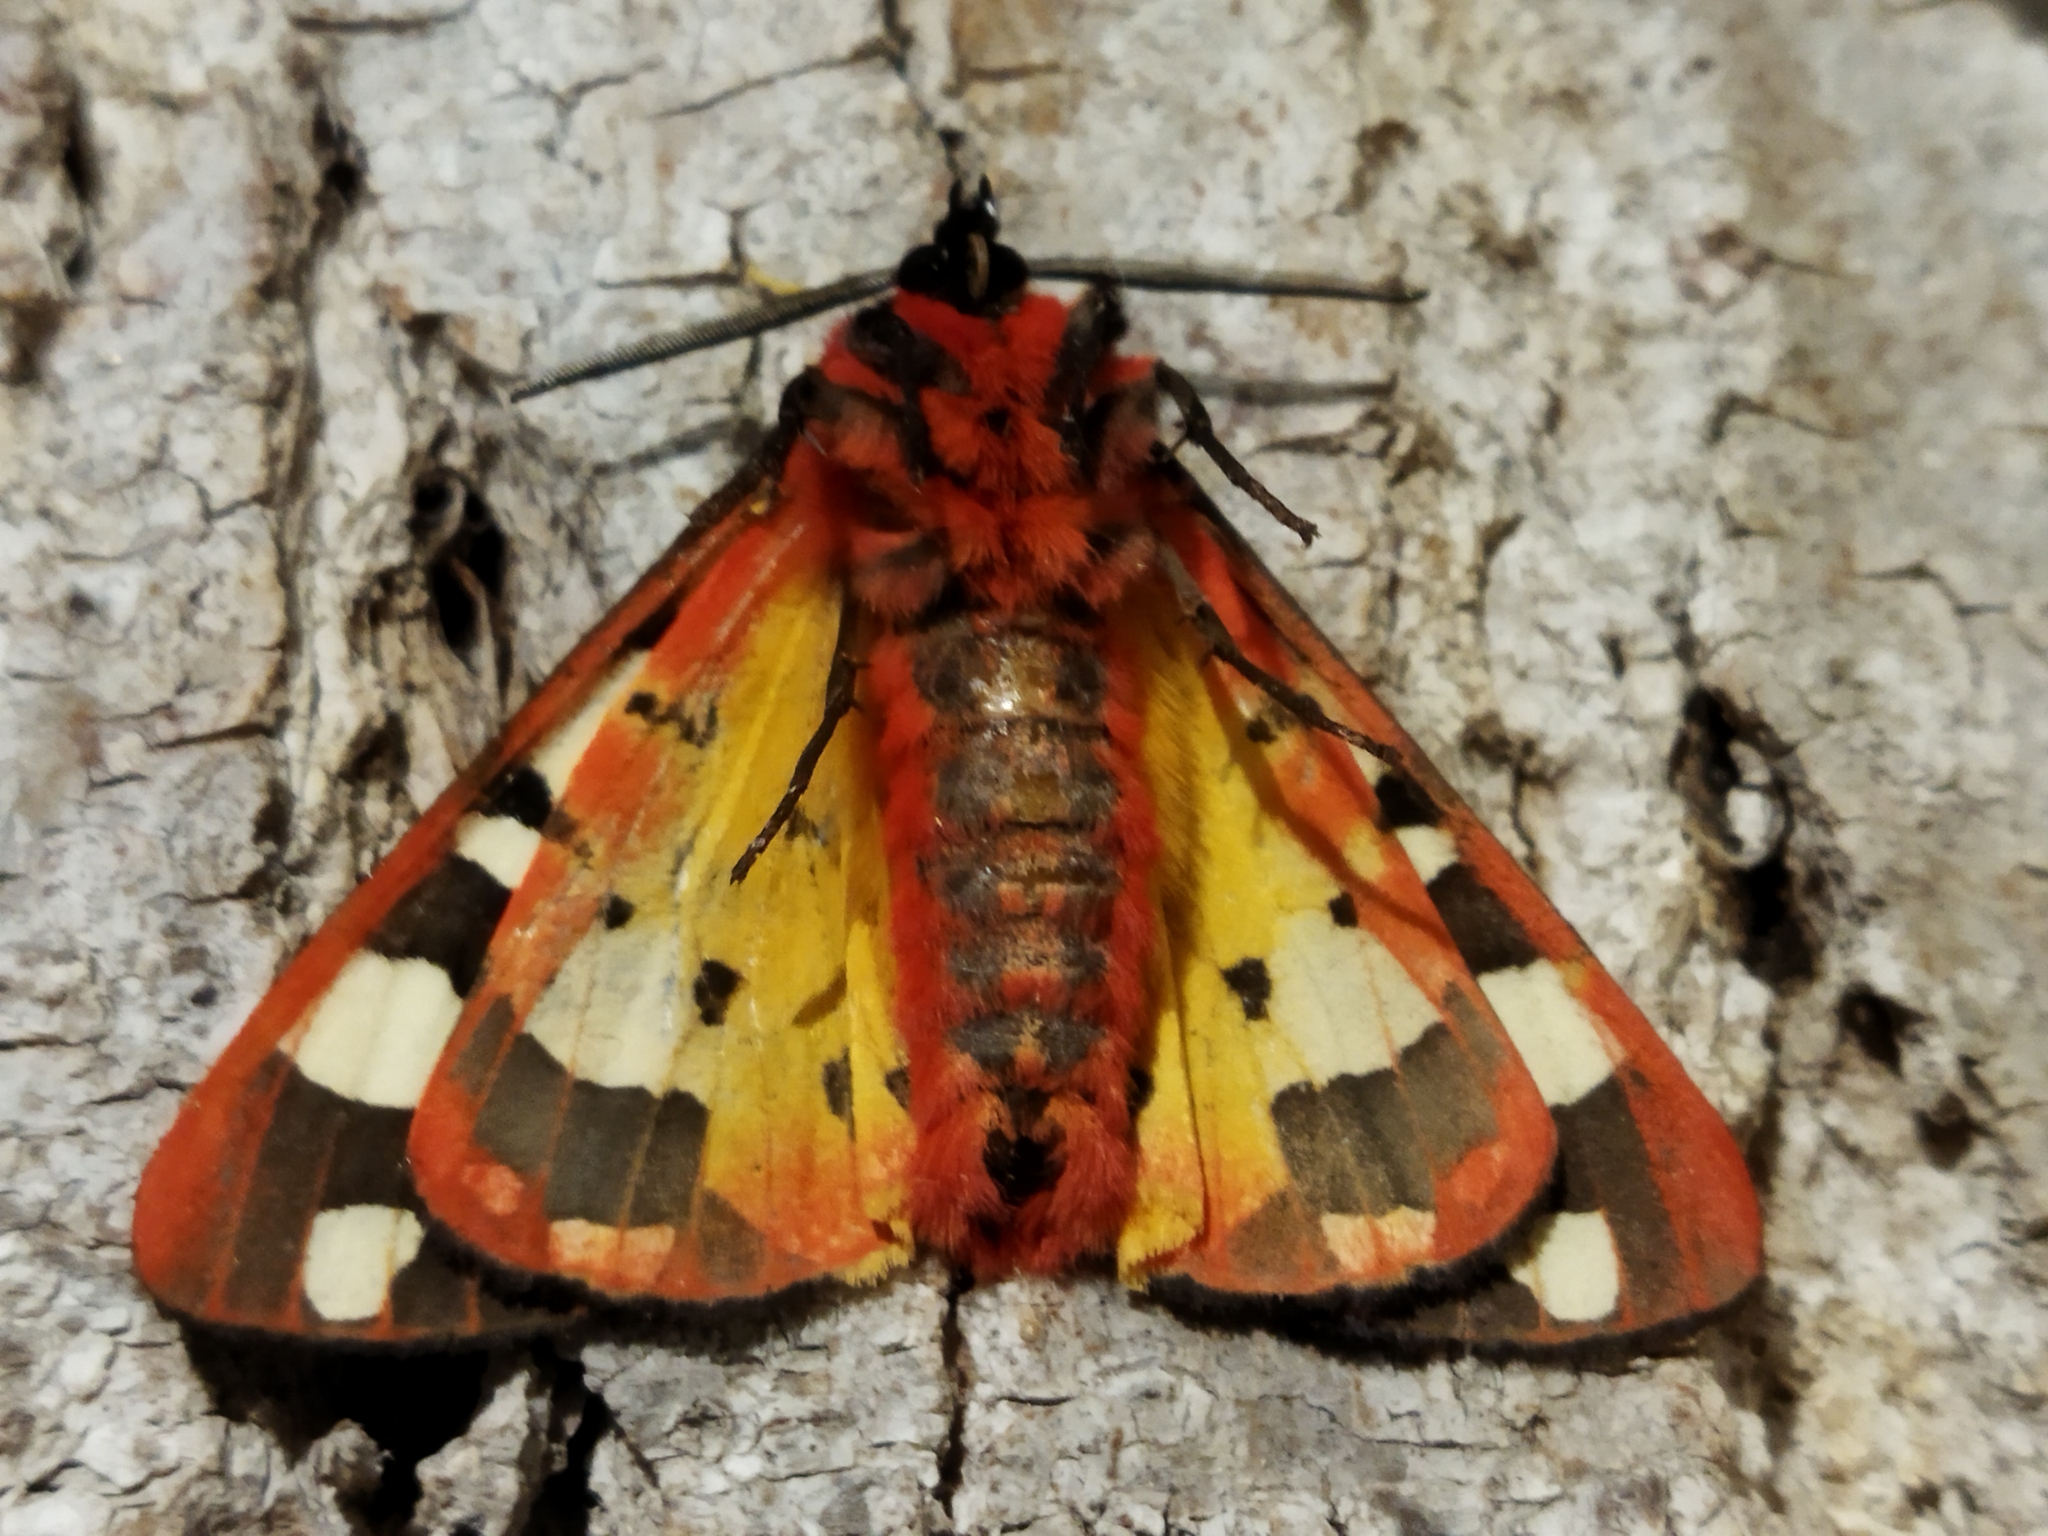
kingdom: Animalia
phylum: Arthropoda
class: Insecta
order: Lepidoptera
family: Erebidae
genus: Epicallia
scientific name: Epicallia villica
